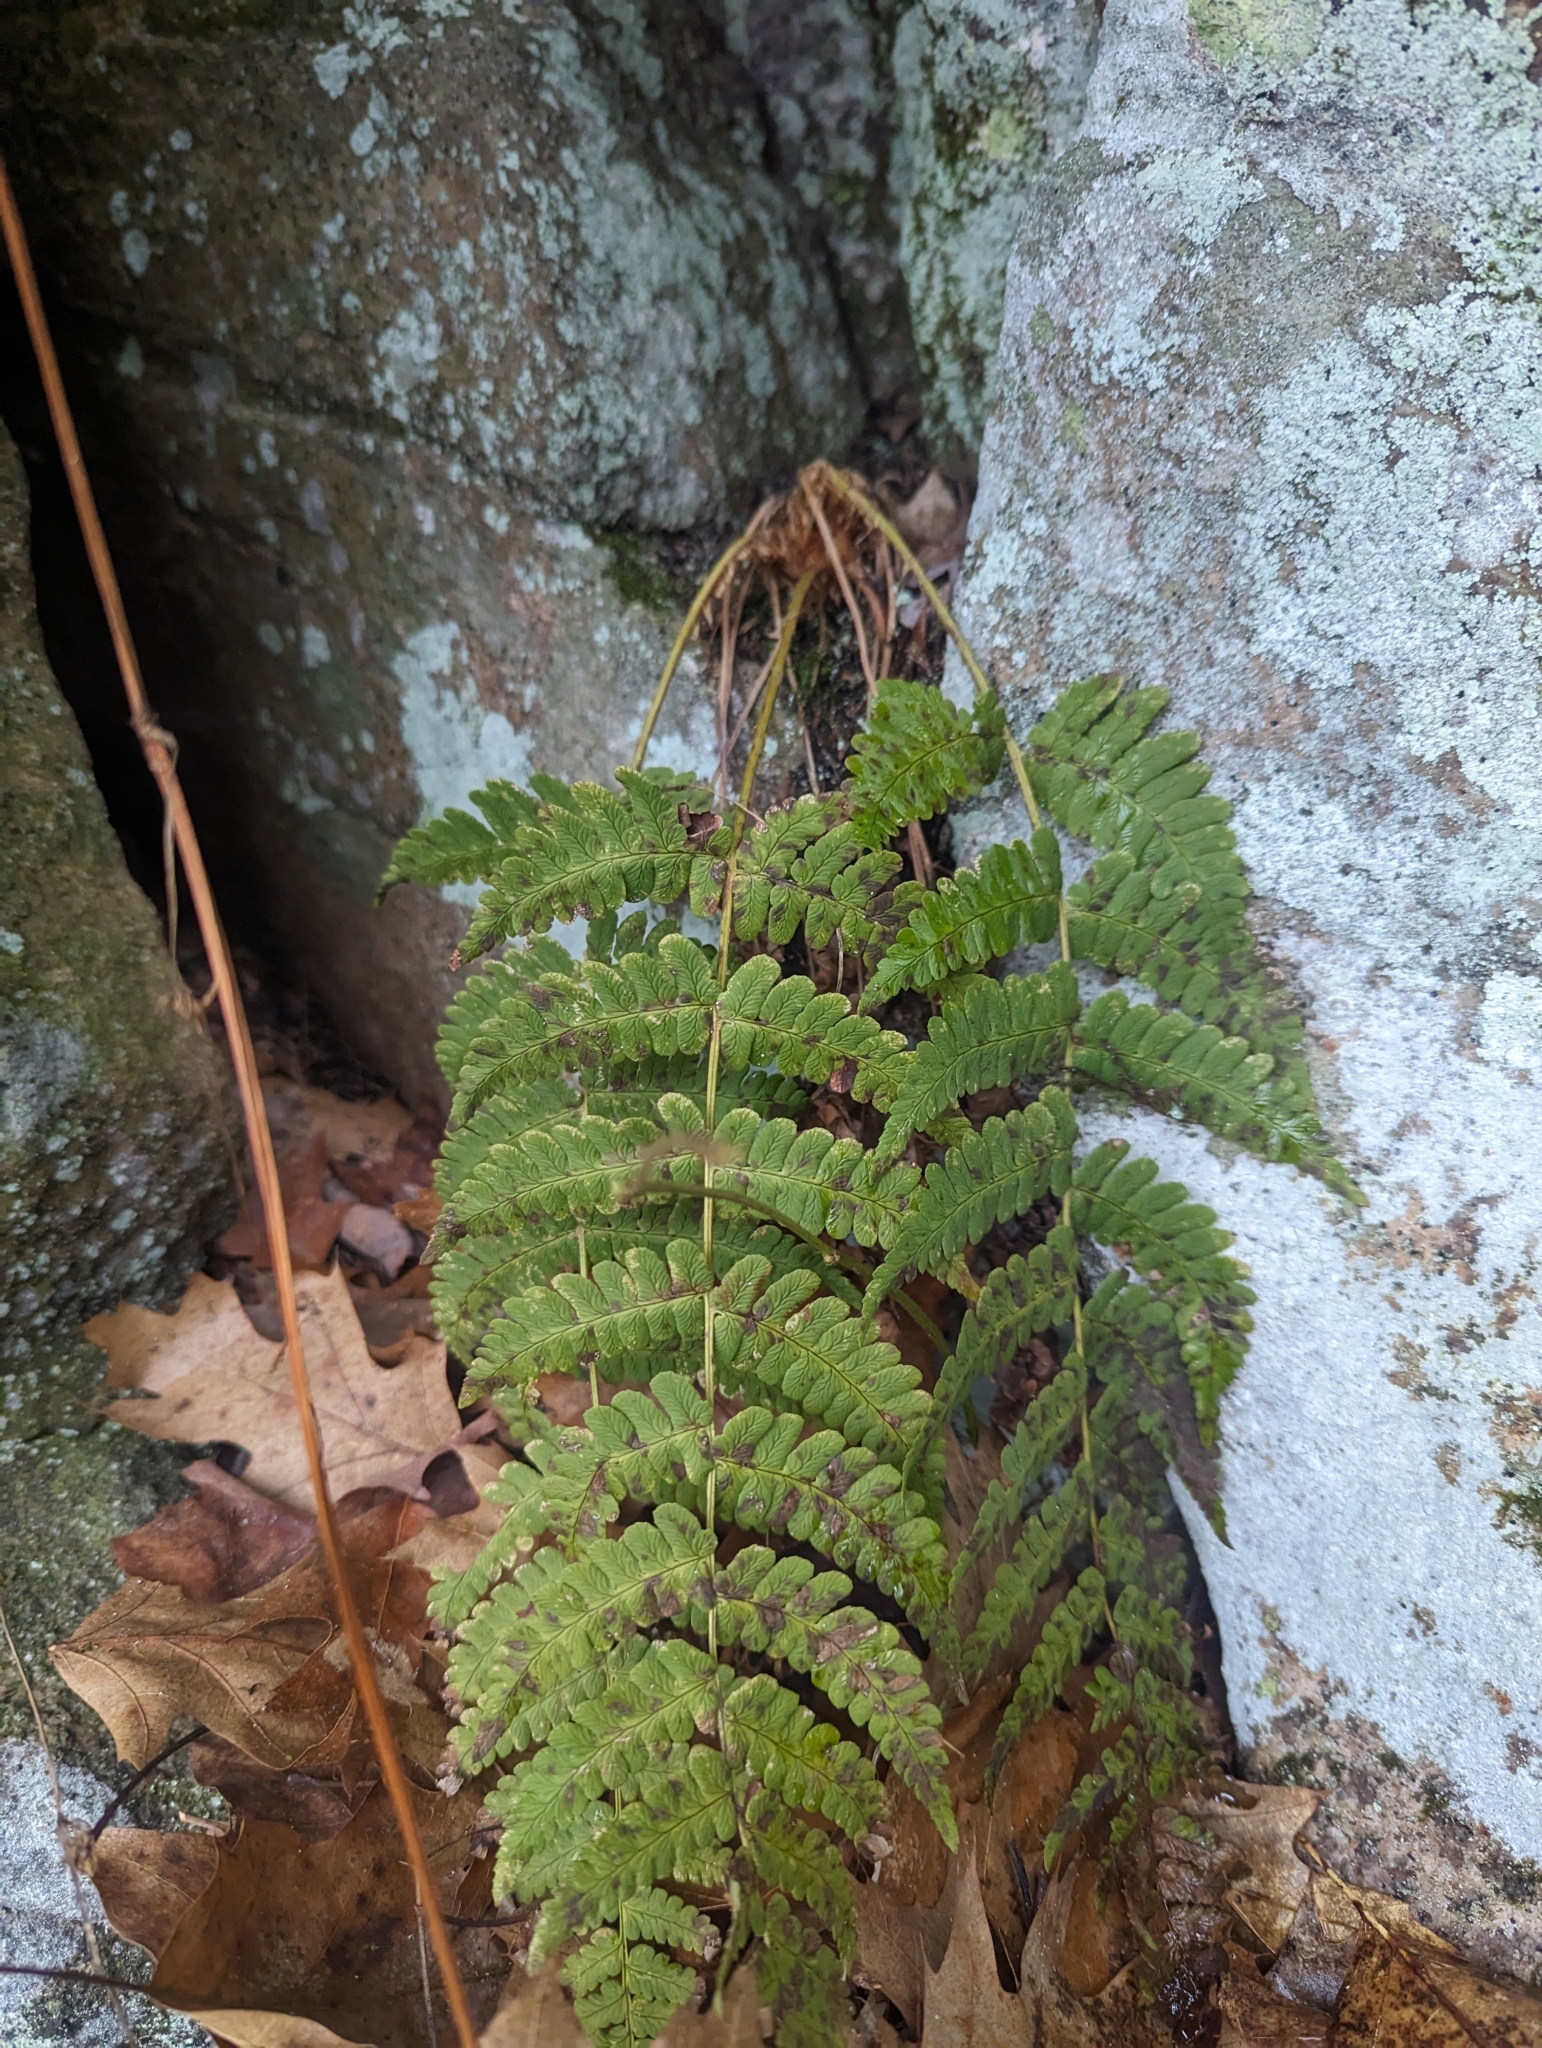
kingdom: Plantae
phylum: Tracheophyta
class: Polypodiopsida
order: Polypodiales
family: Dryopteridaceae
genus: Dryopteris
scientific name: Dryopteris marginalis
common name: Marginal wood fern
